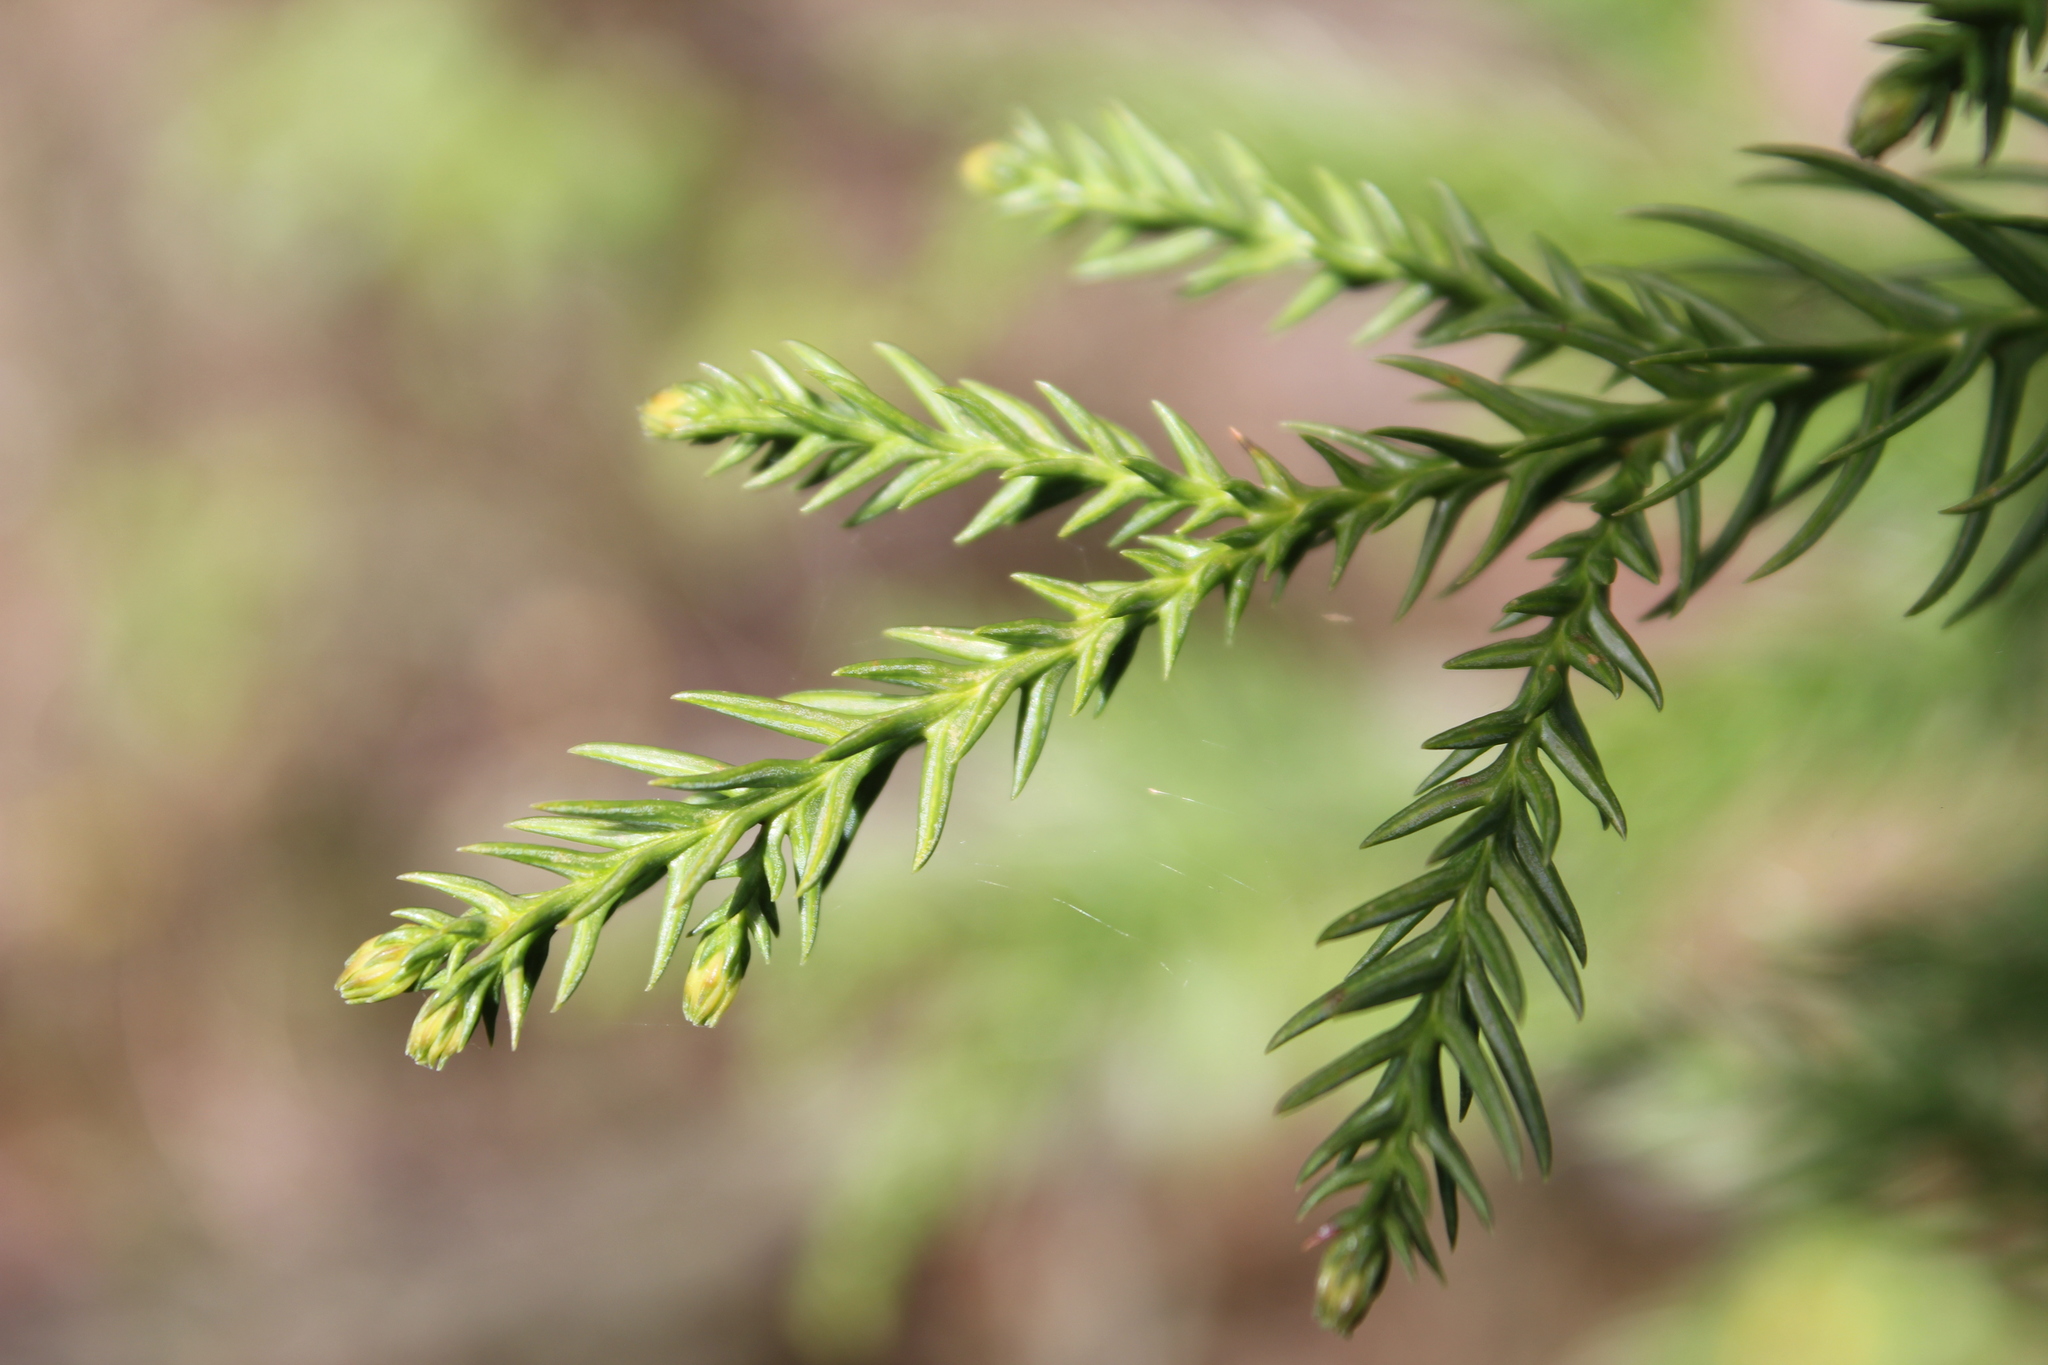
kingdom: Plantae
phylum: Tracheophyta
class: Pinopsida
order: Pinales
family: Cupressaceae
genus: Cryptomeria
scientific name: Cryptomeria japonica
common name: Japanese cedar
